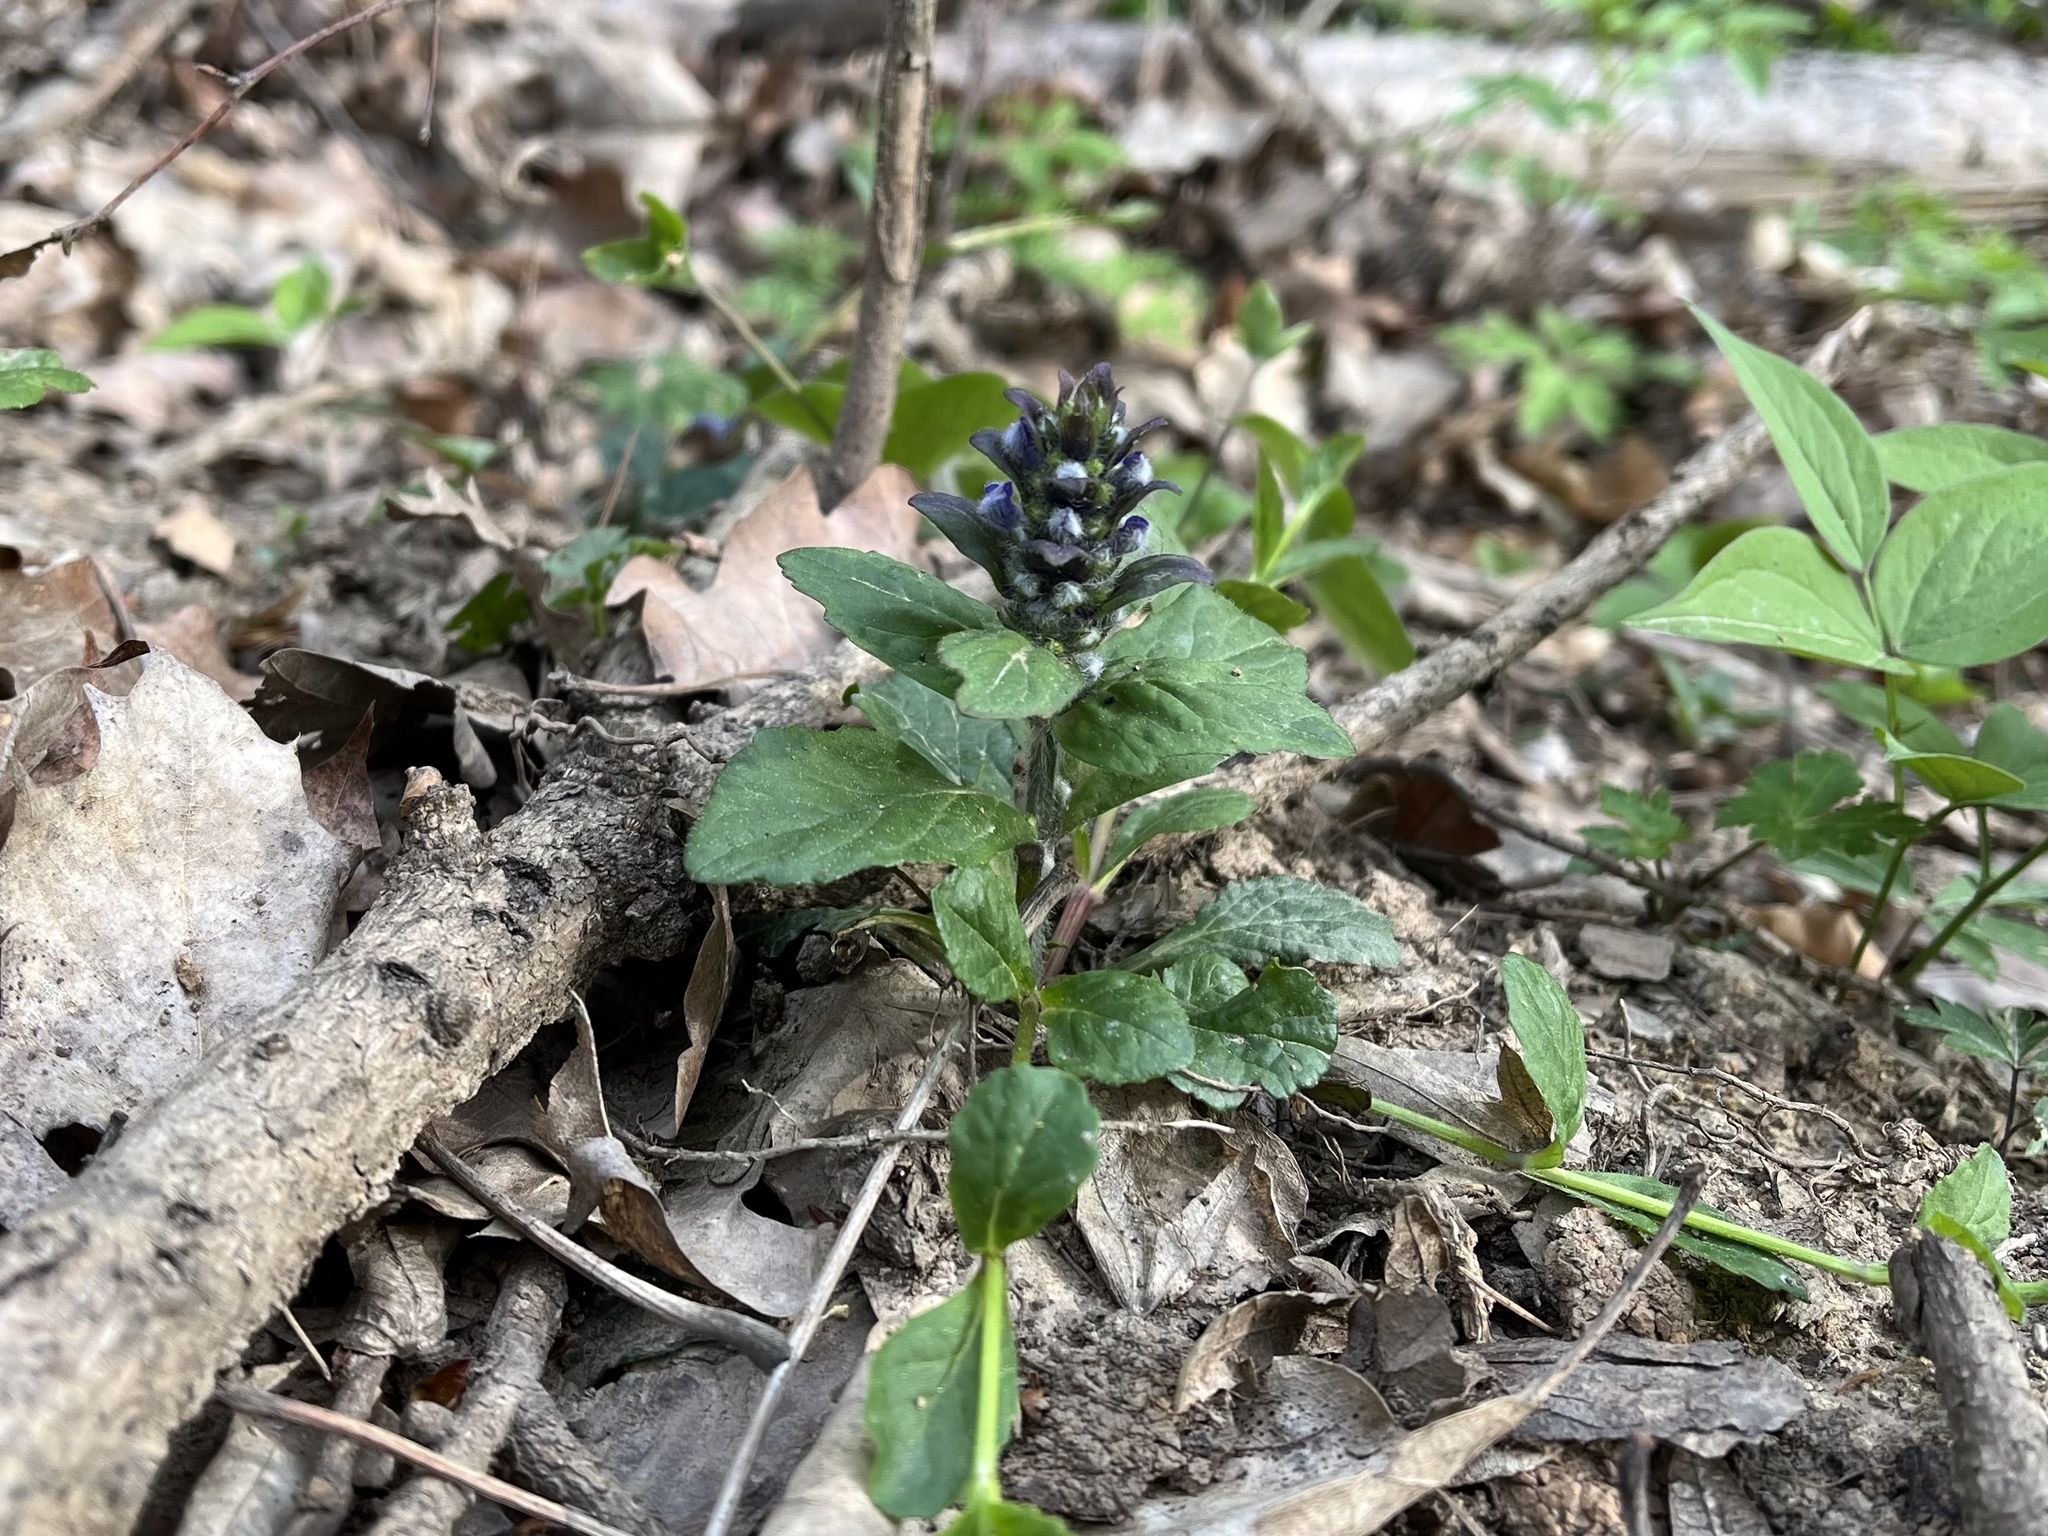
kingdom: Plantae
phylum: Tracheophyta
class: Magnoliopsida
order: Lamiales
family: Lamiaceae
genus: Ajuga
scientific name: Ajuga reptans
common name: Bugle
